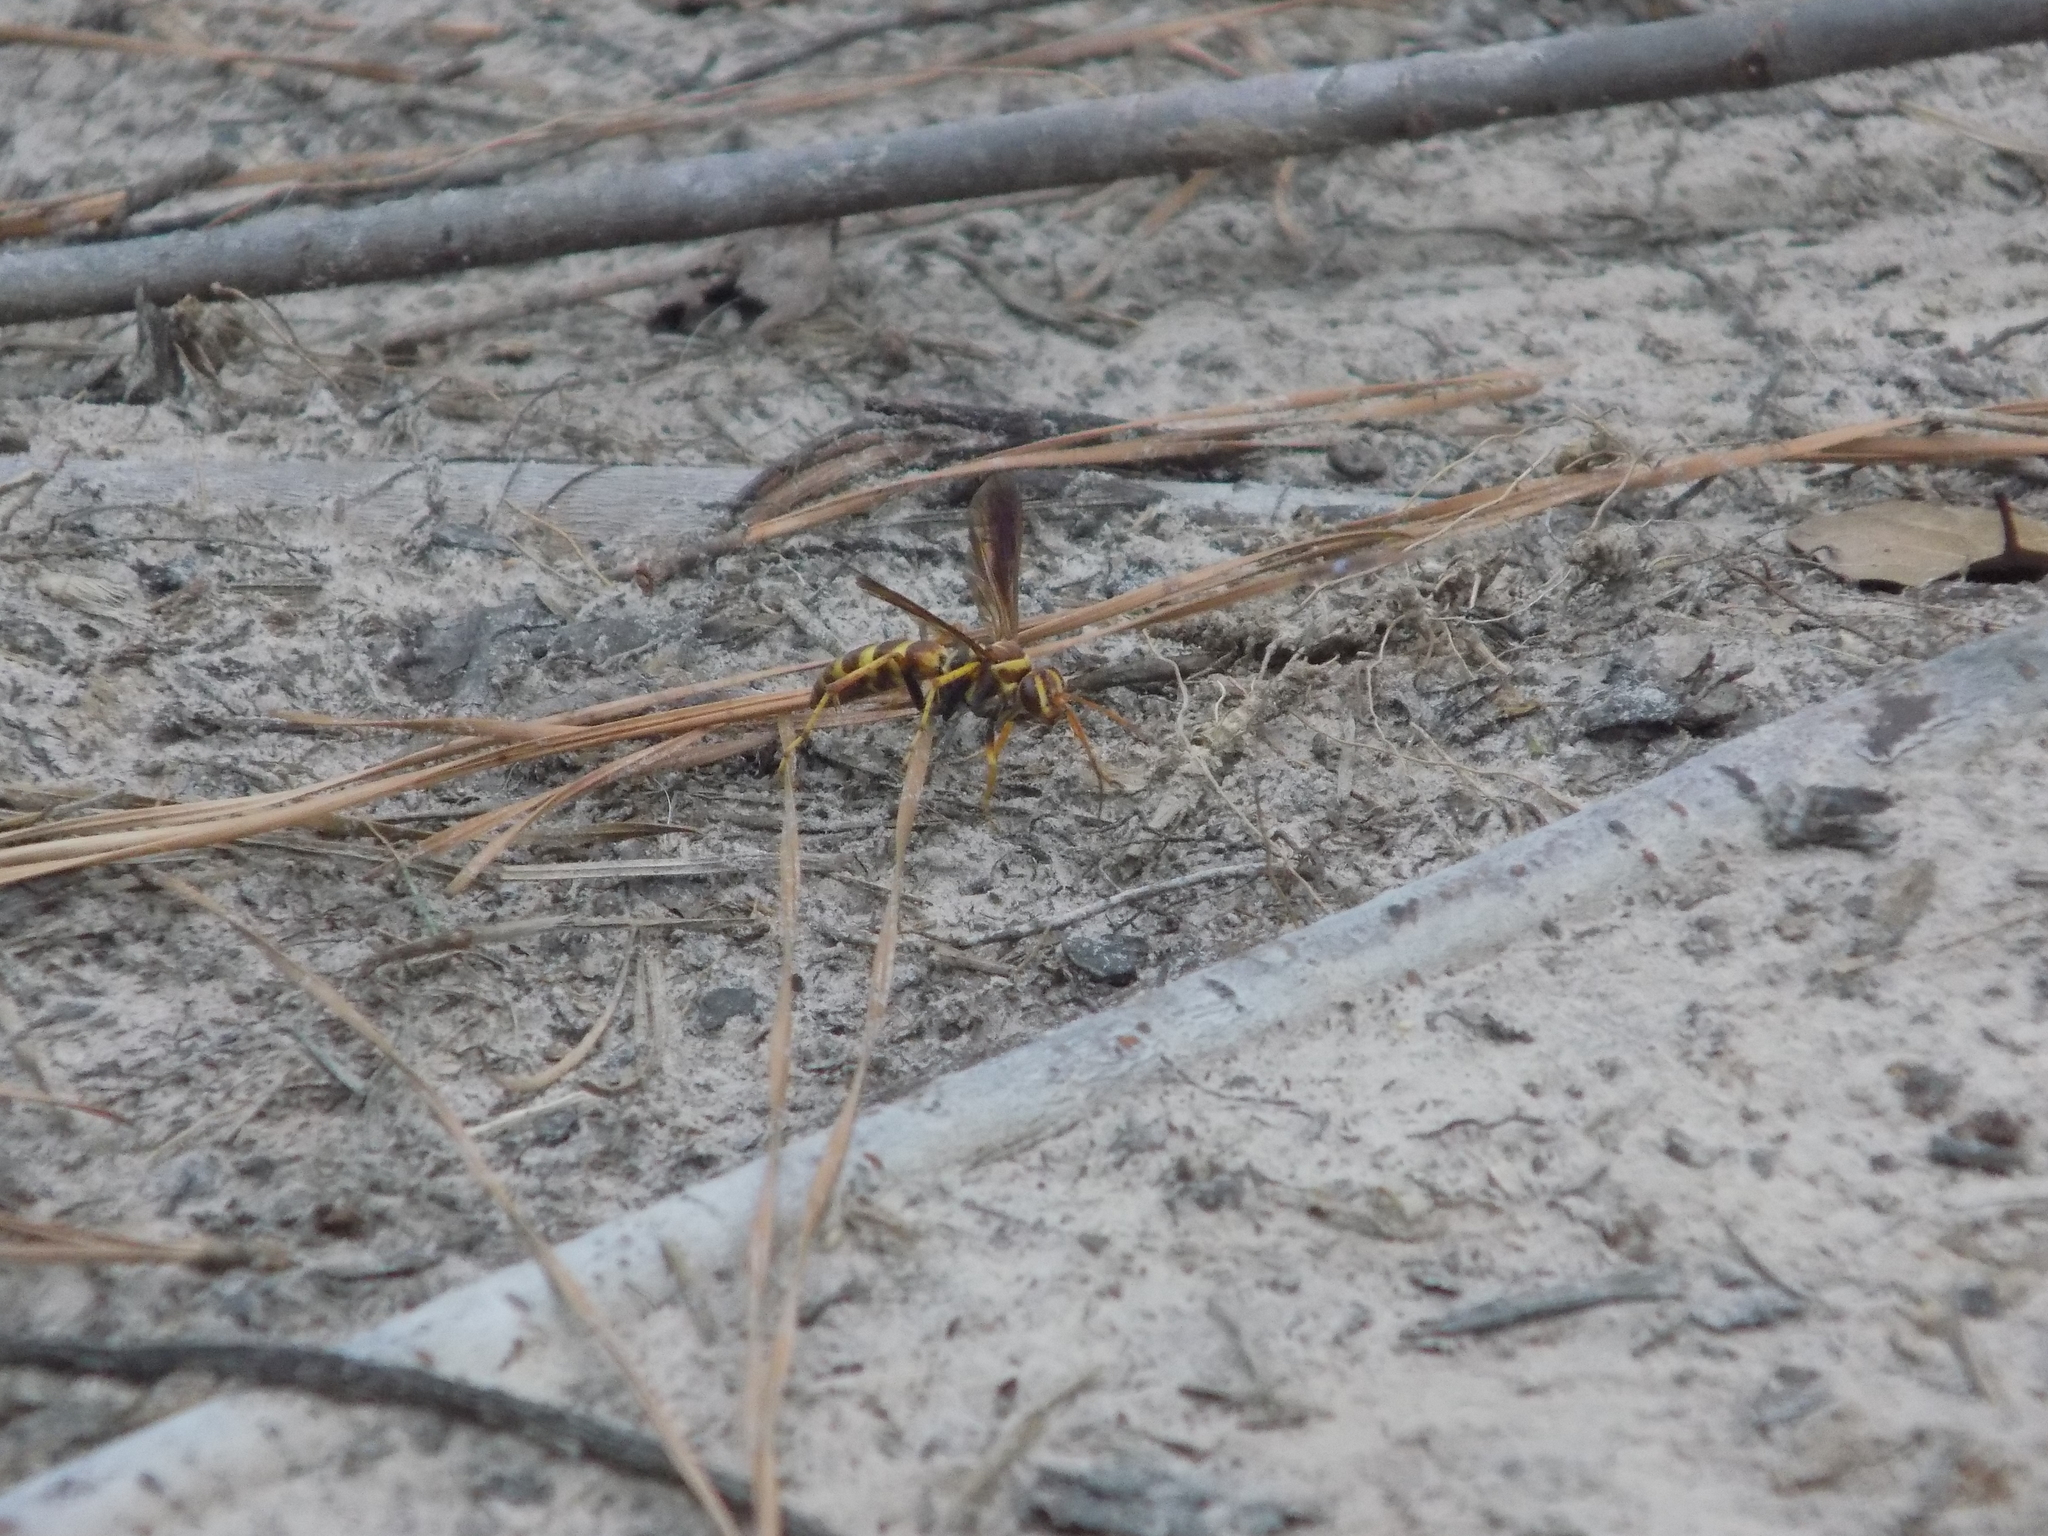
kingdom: Animalia
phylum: Arthropoda
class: Insecta
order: Hymenoptera
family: Pompilidae
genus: Poecilopompilus
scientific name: Poecilopompilus interruptus
